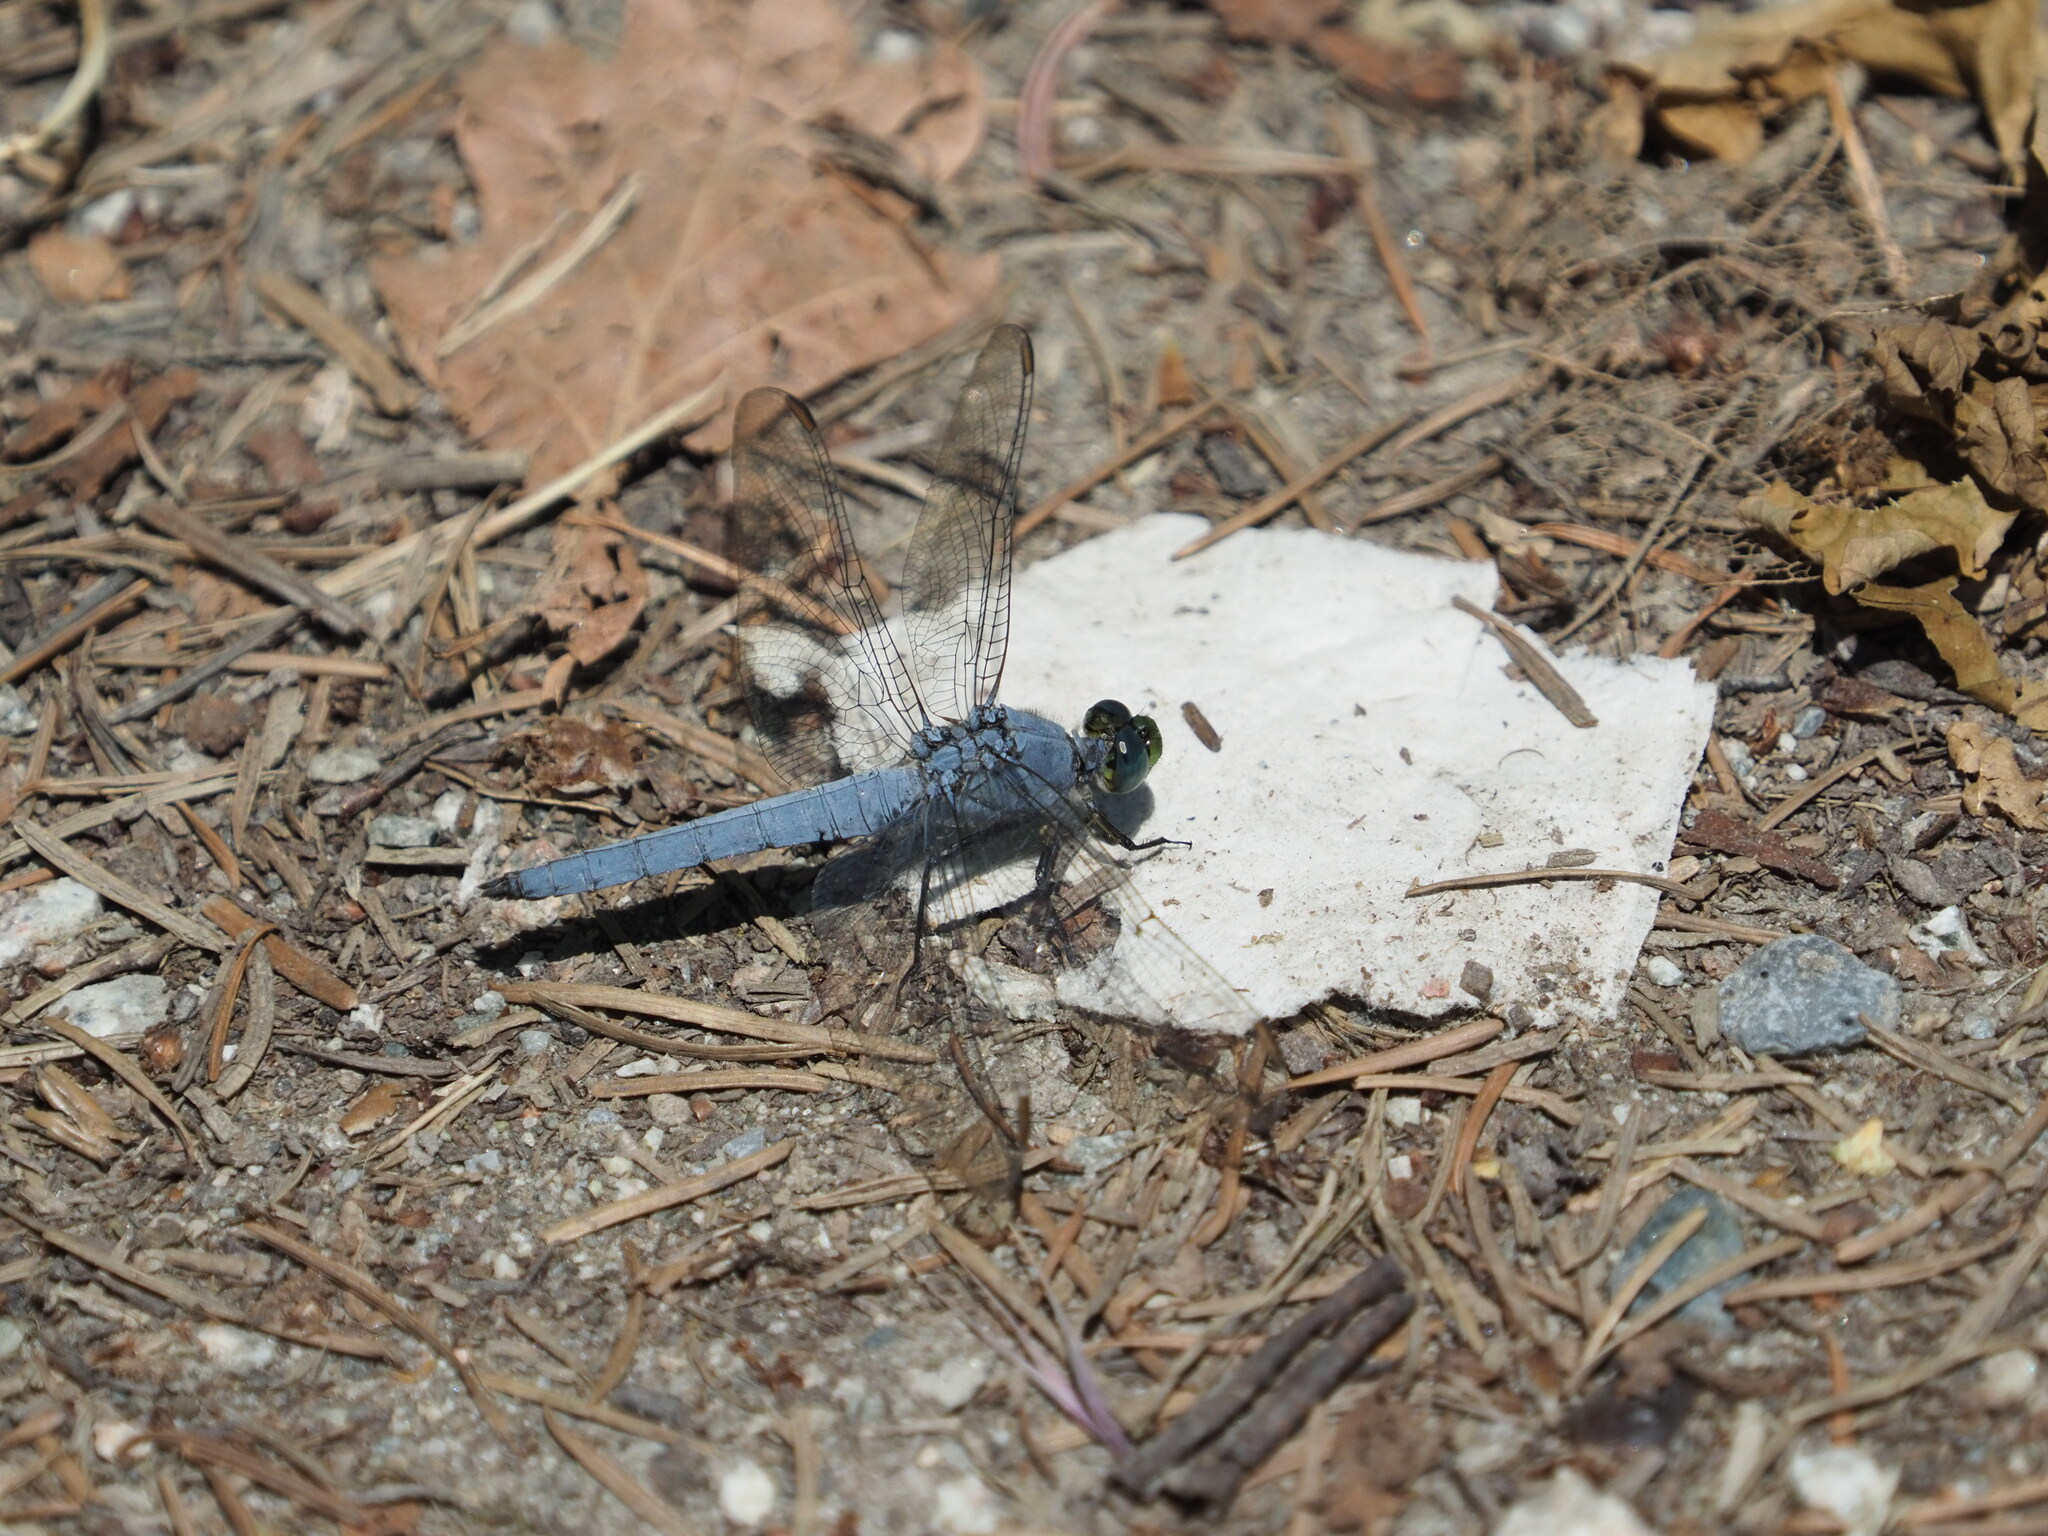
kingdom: Animalia
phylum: Arthropoda
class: Insecta
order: Odonata
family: Libellulidae
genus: Erythemis
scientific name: Erythemis collocata
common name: Western pondhawk
